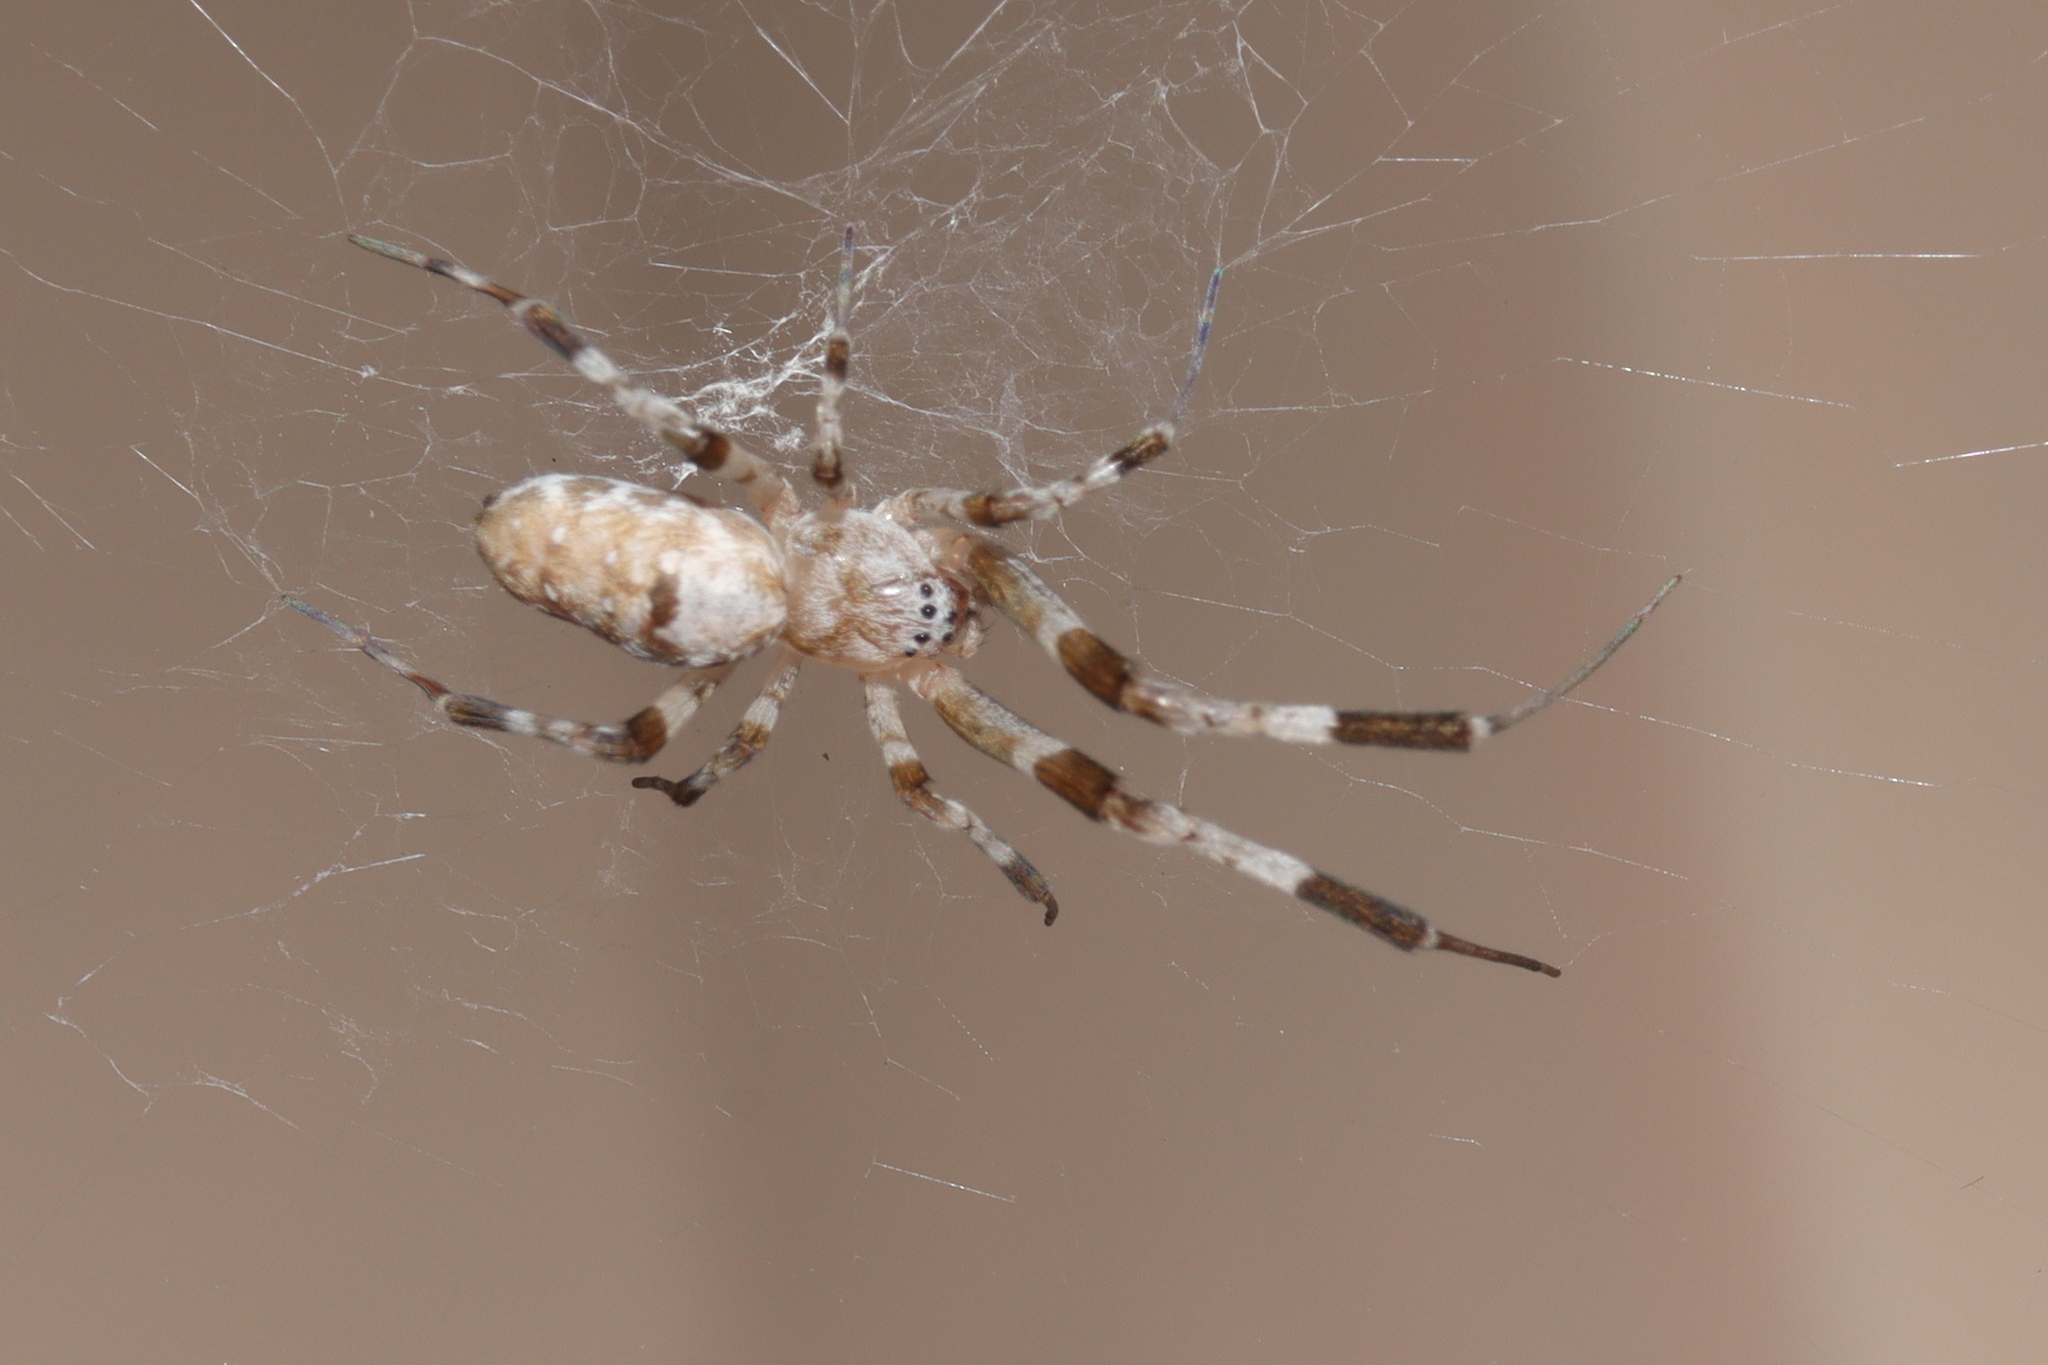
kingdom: Animalia
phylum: Arthropoda
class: Arachnida
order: Araneae
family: Uloboridae
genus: Zosis
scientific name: Zosis geniculata
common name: Hackled orb weavers
